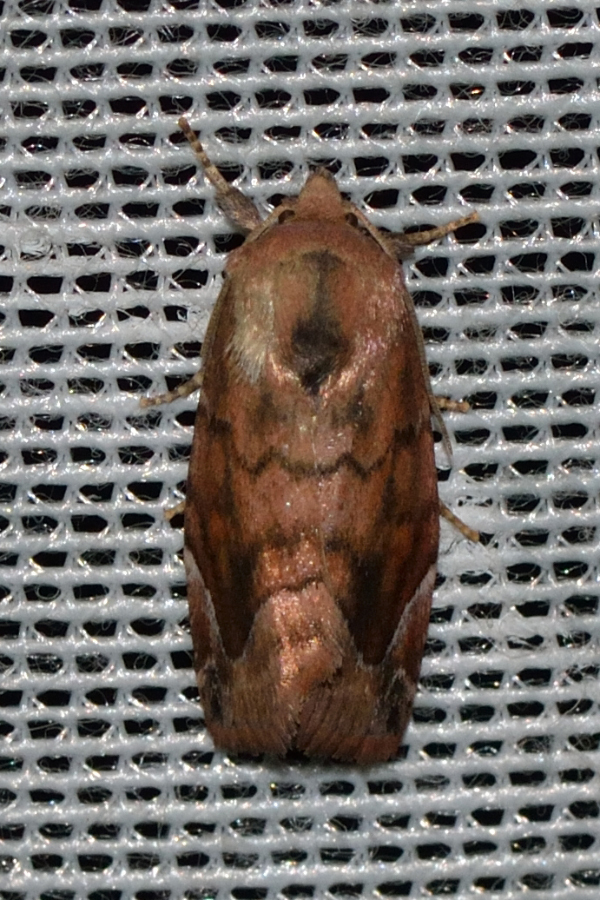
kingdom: Animalia
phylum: Arthropoda
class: Insecta
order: Lepidoptera
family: Noctuidae
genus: Cosmia
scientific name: Cosmia pyralina
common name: Lunar-spotted pinion
